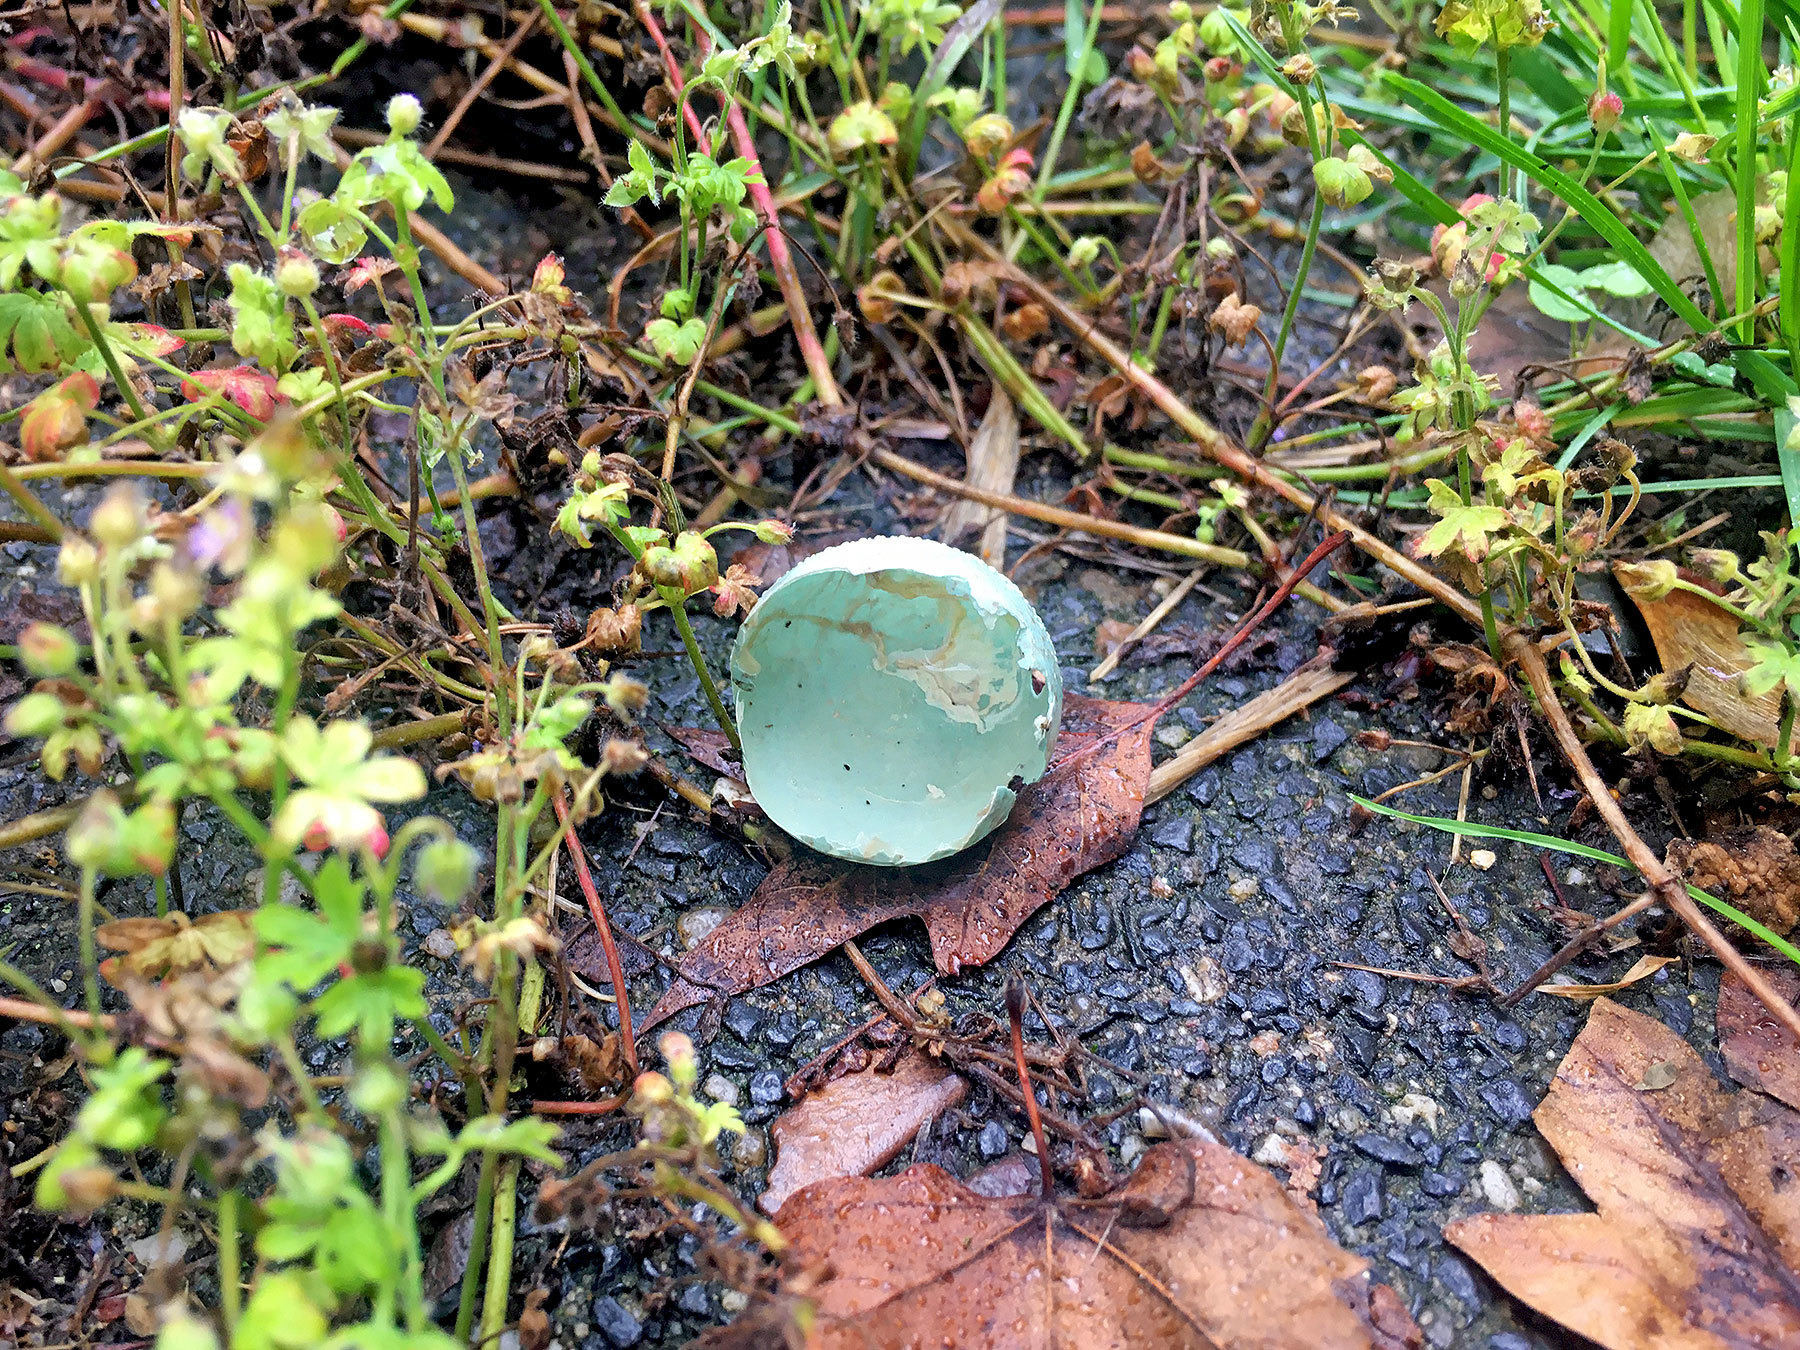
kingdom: Animalia
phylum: Chordata
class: Aves
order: Passeriformes
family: Turdidae
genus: Turdus
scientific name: Turdus merula
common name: Common blackbird
